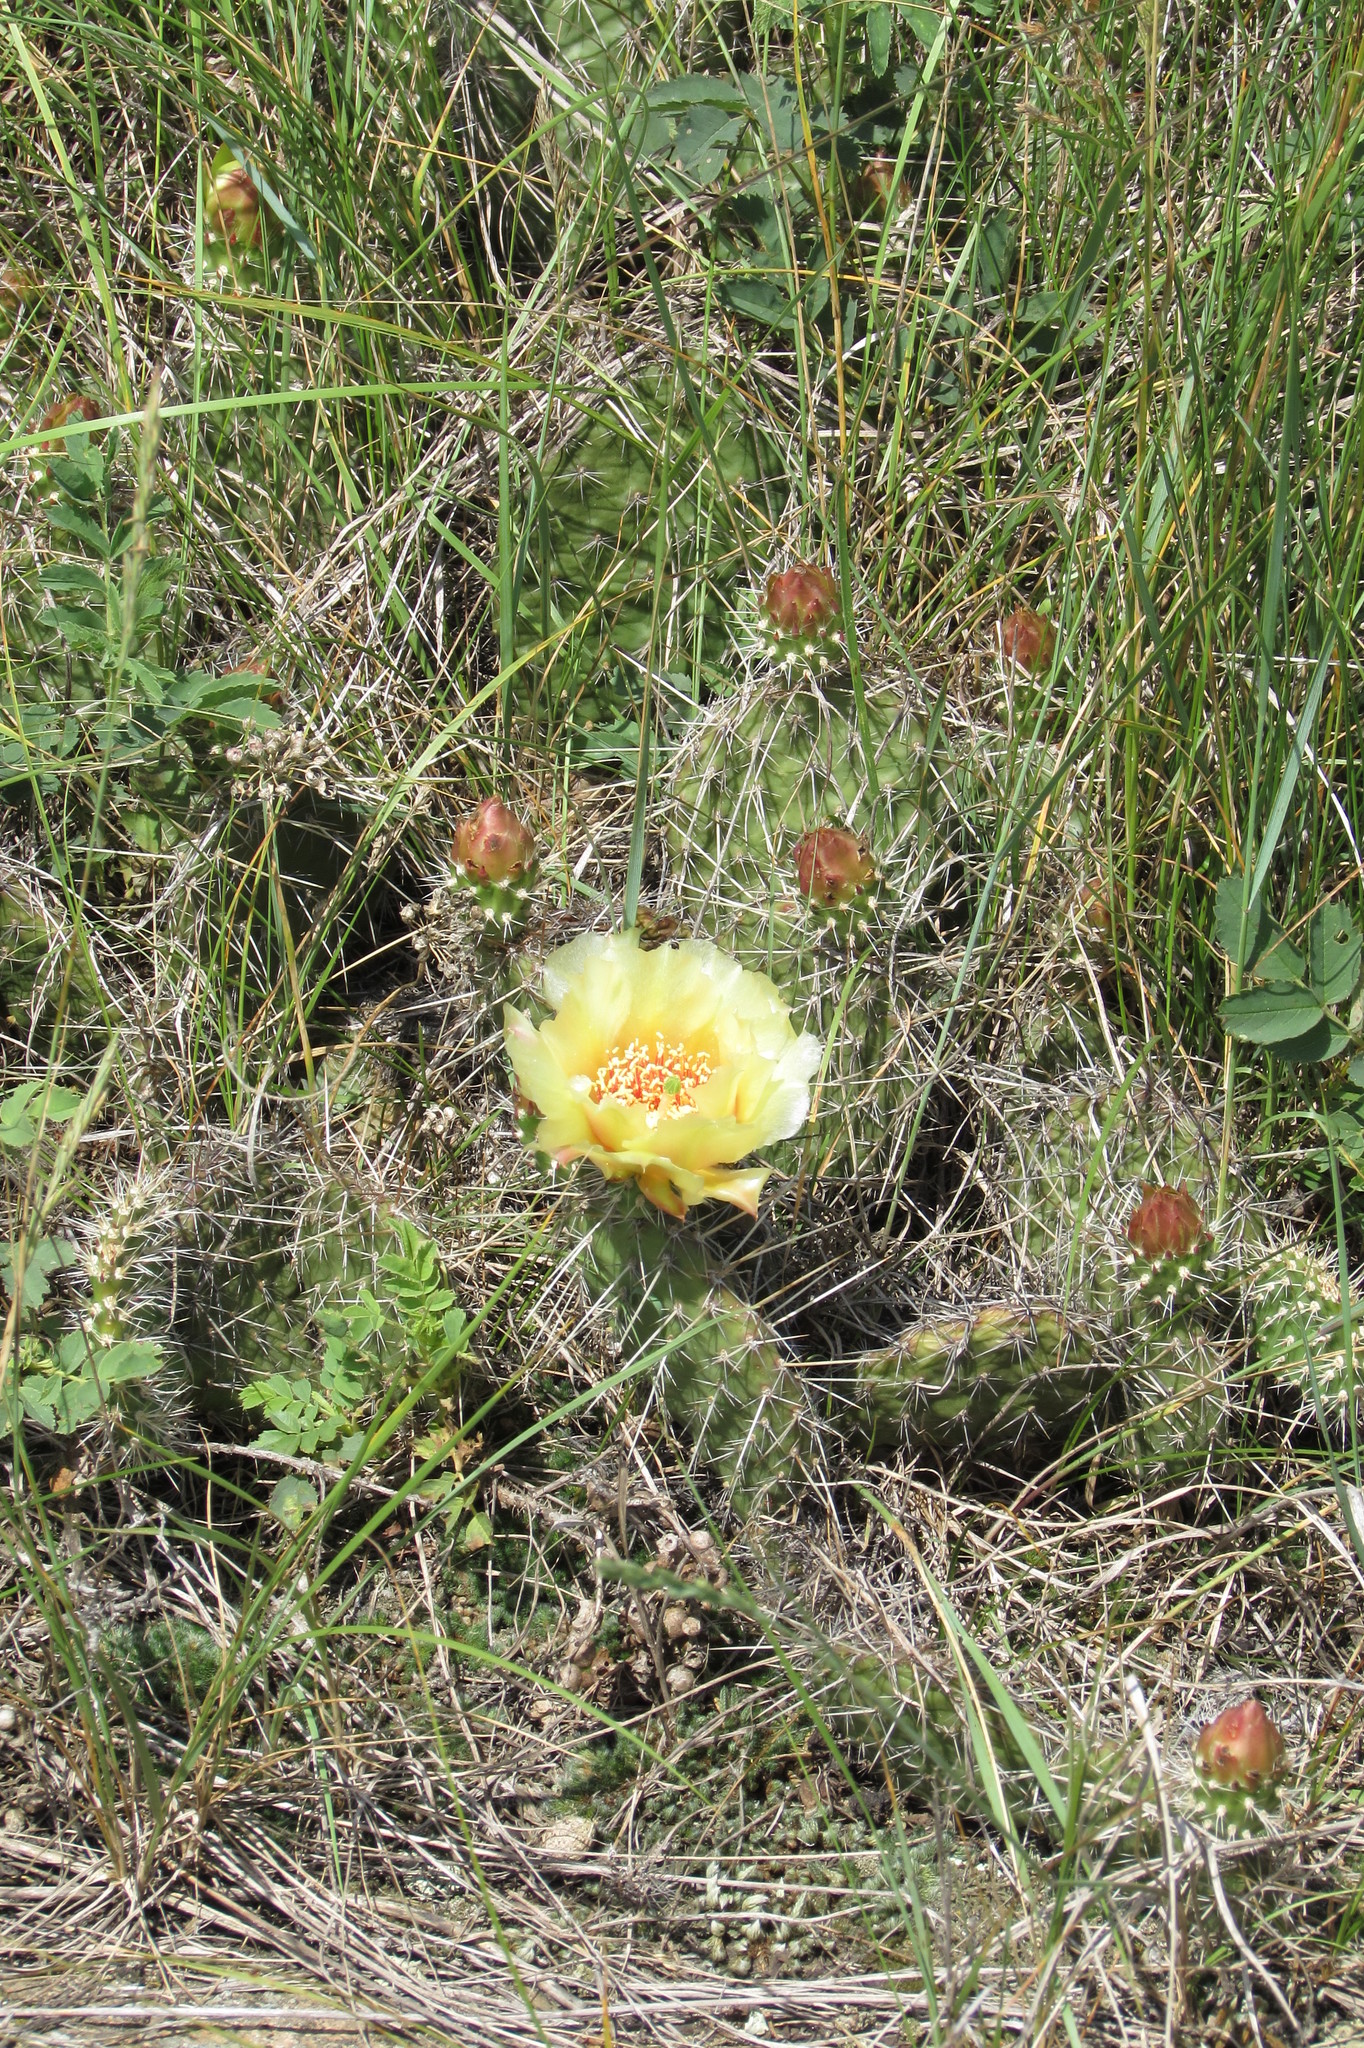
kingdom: Plantae
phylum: Tracheophyta
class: Magnoliopsida
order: Caryophyllales
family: Cactaceae
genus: Opuntia
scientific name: Opuntia polyacantha
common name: Plains prickly-pear
